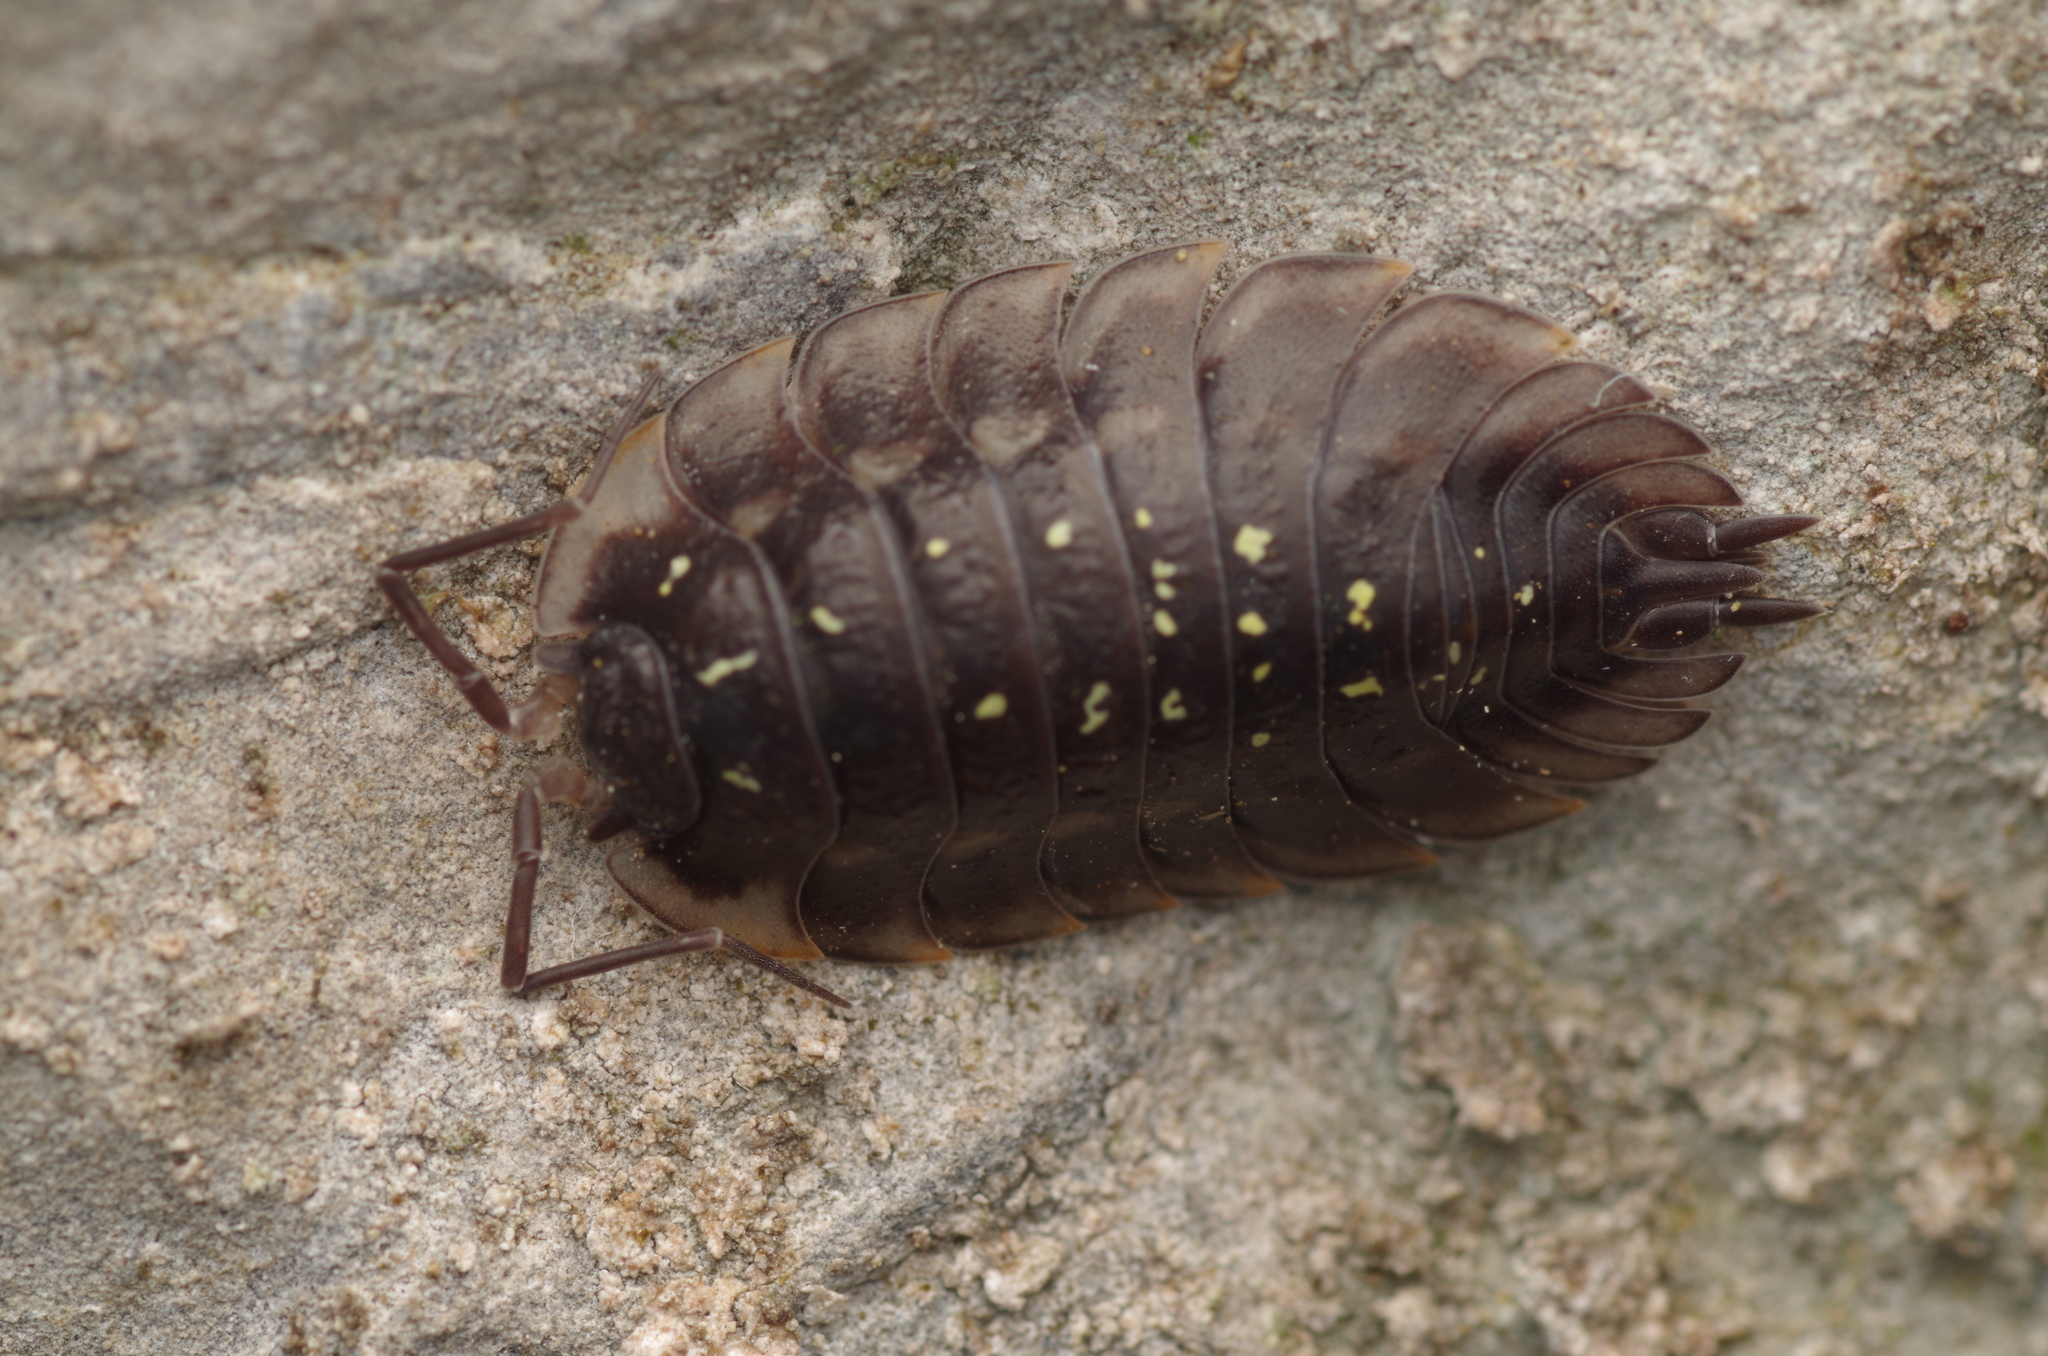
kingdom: Animalia
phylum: Arthropoda
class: Malacostraca
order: Isopoda
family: Oniscidae
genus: Oniscus
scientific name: Oniscus asellus
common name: Common shiny woodlouse
